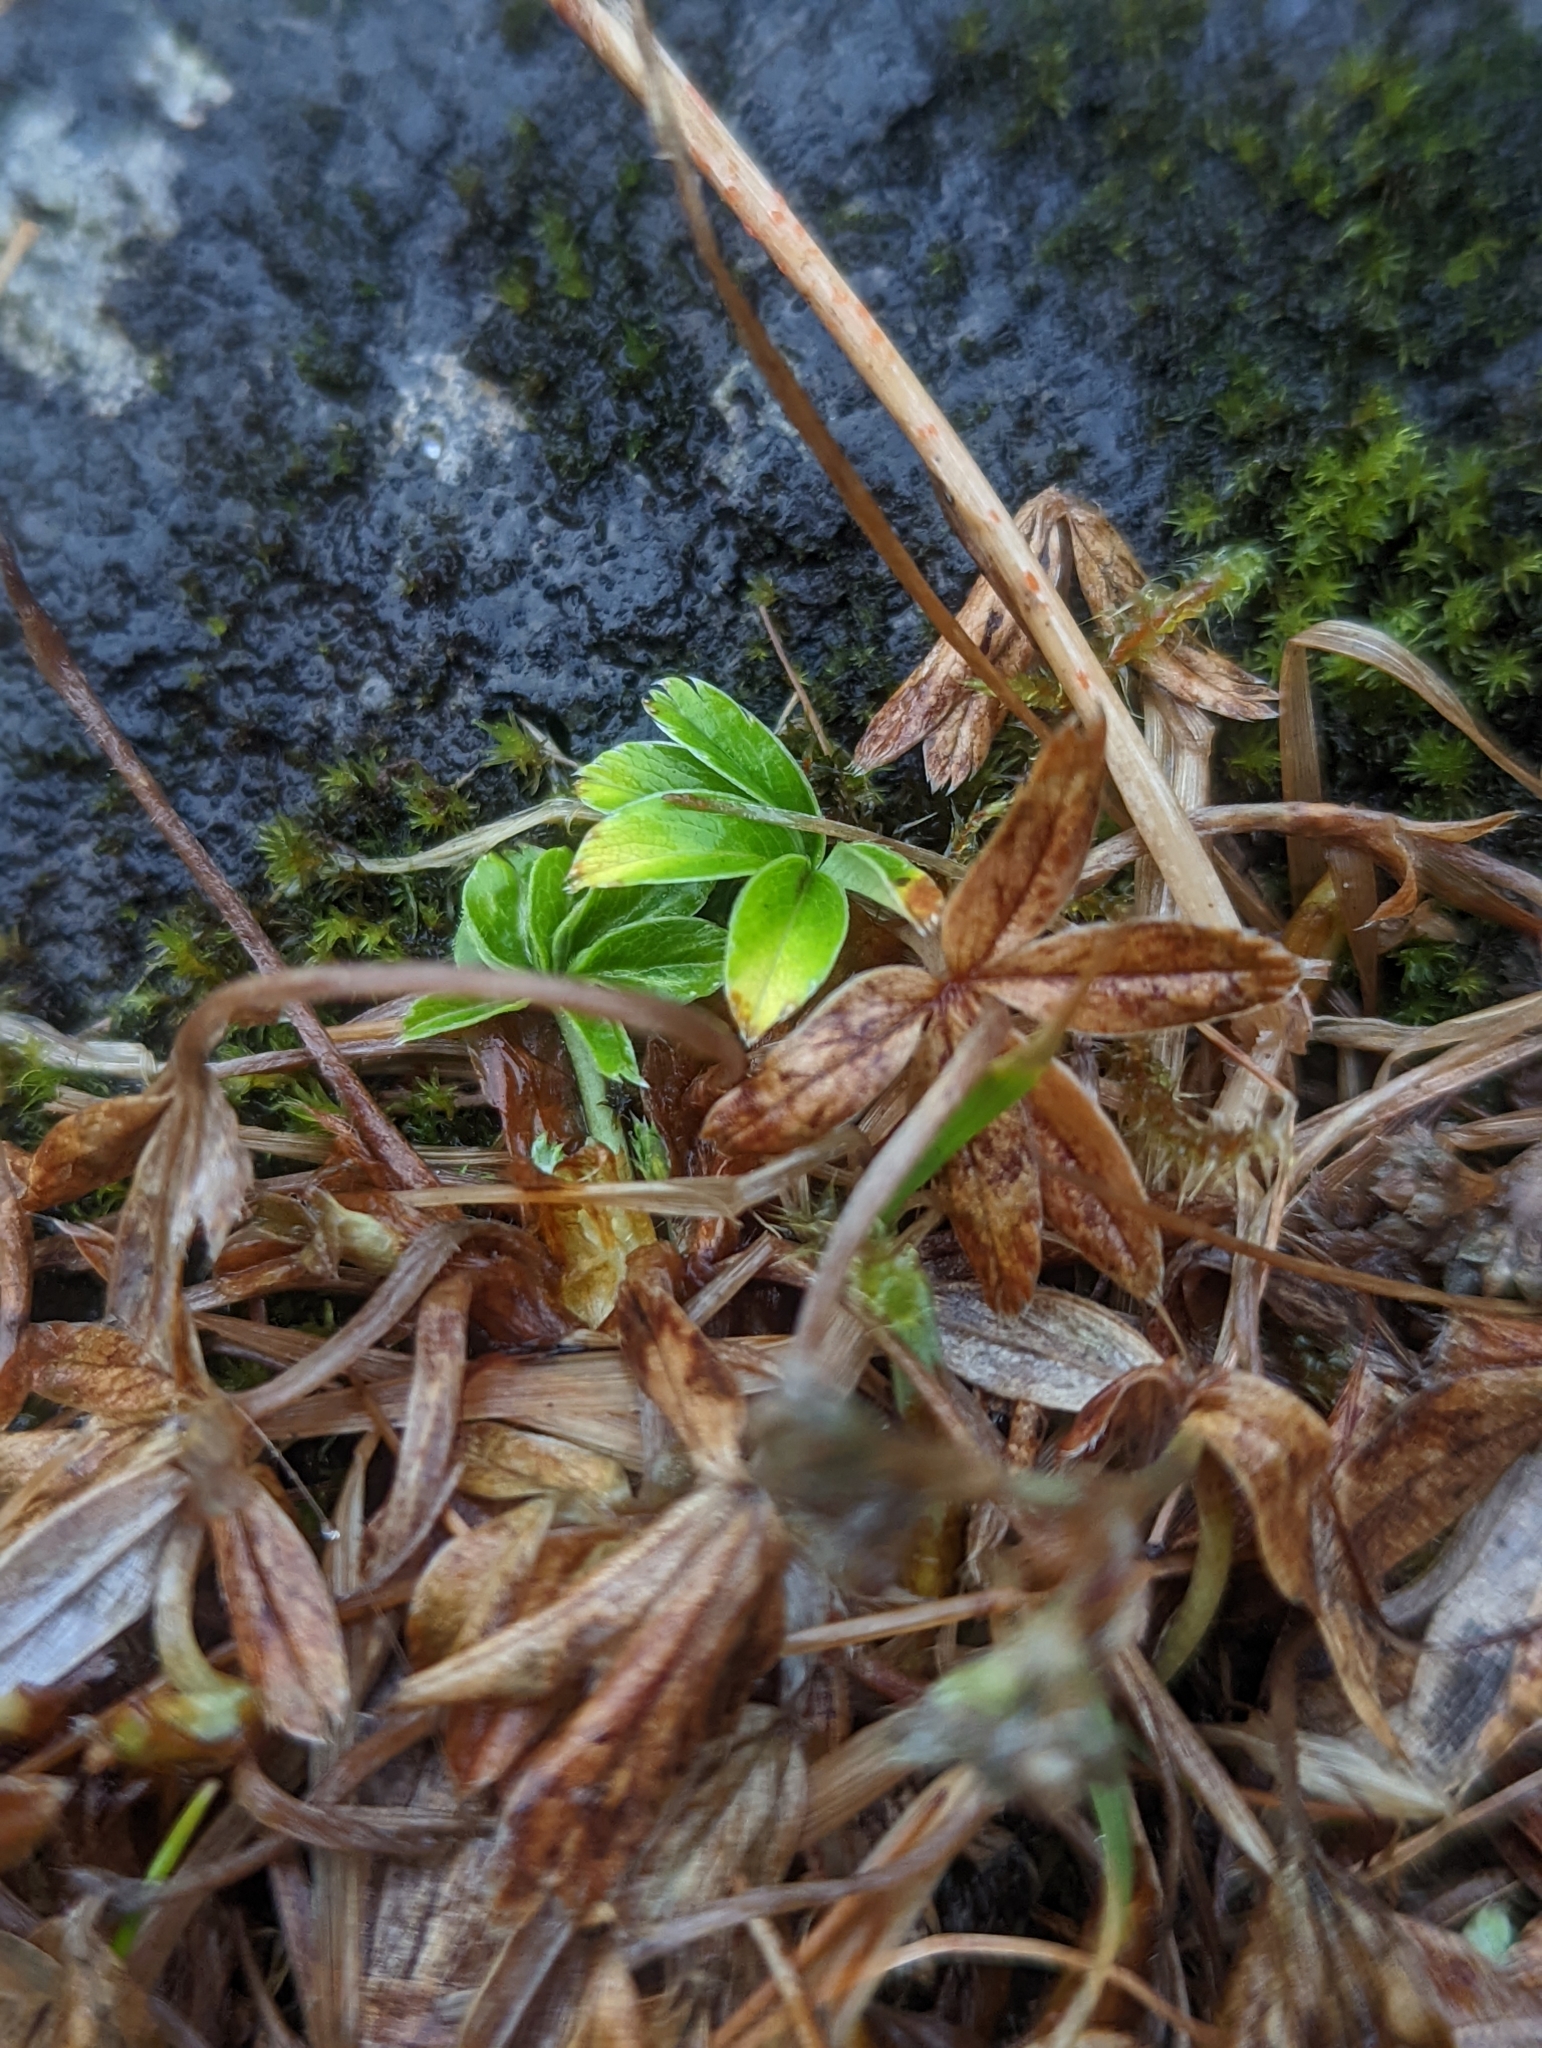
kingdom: Plantae
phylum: Tracheophyta
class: Magnoliopsida
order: Rosales
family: Rosaceae
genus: Alchemilla
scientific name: Alchemilla alpina
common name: Alpine lady's-mantle
